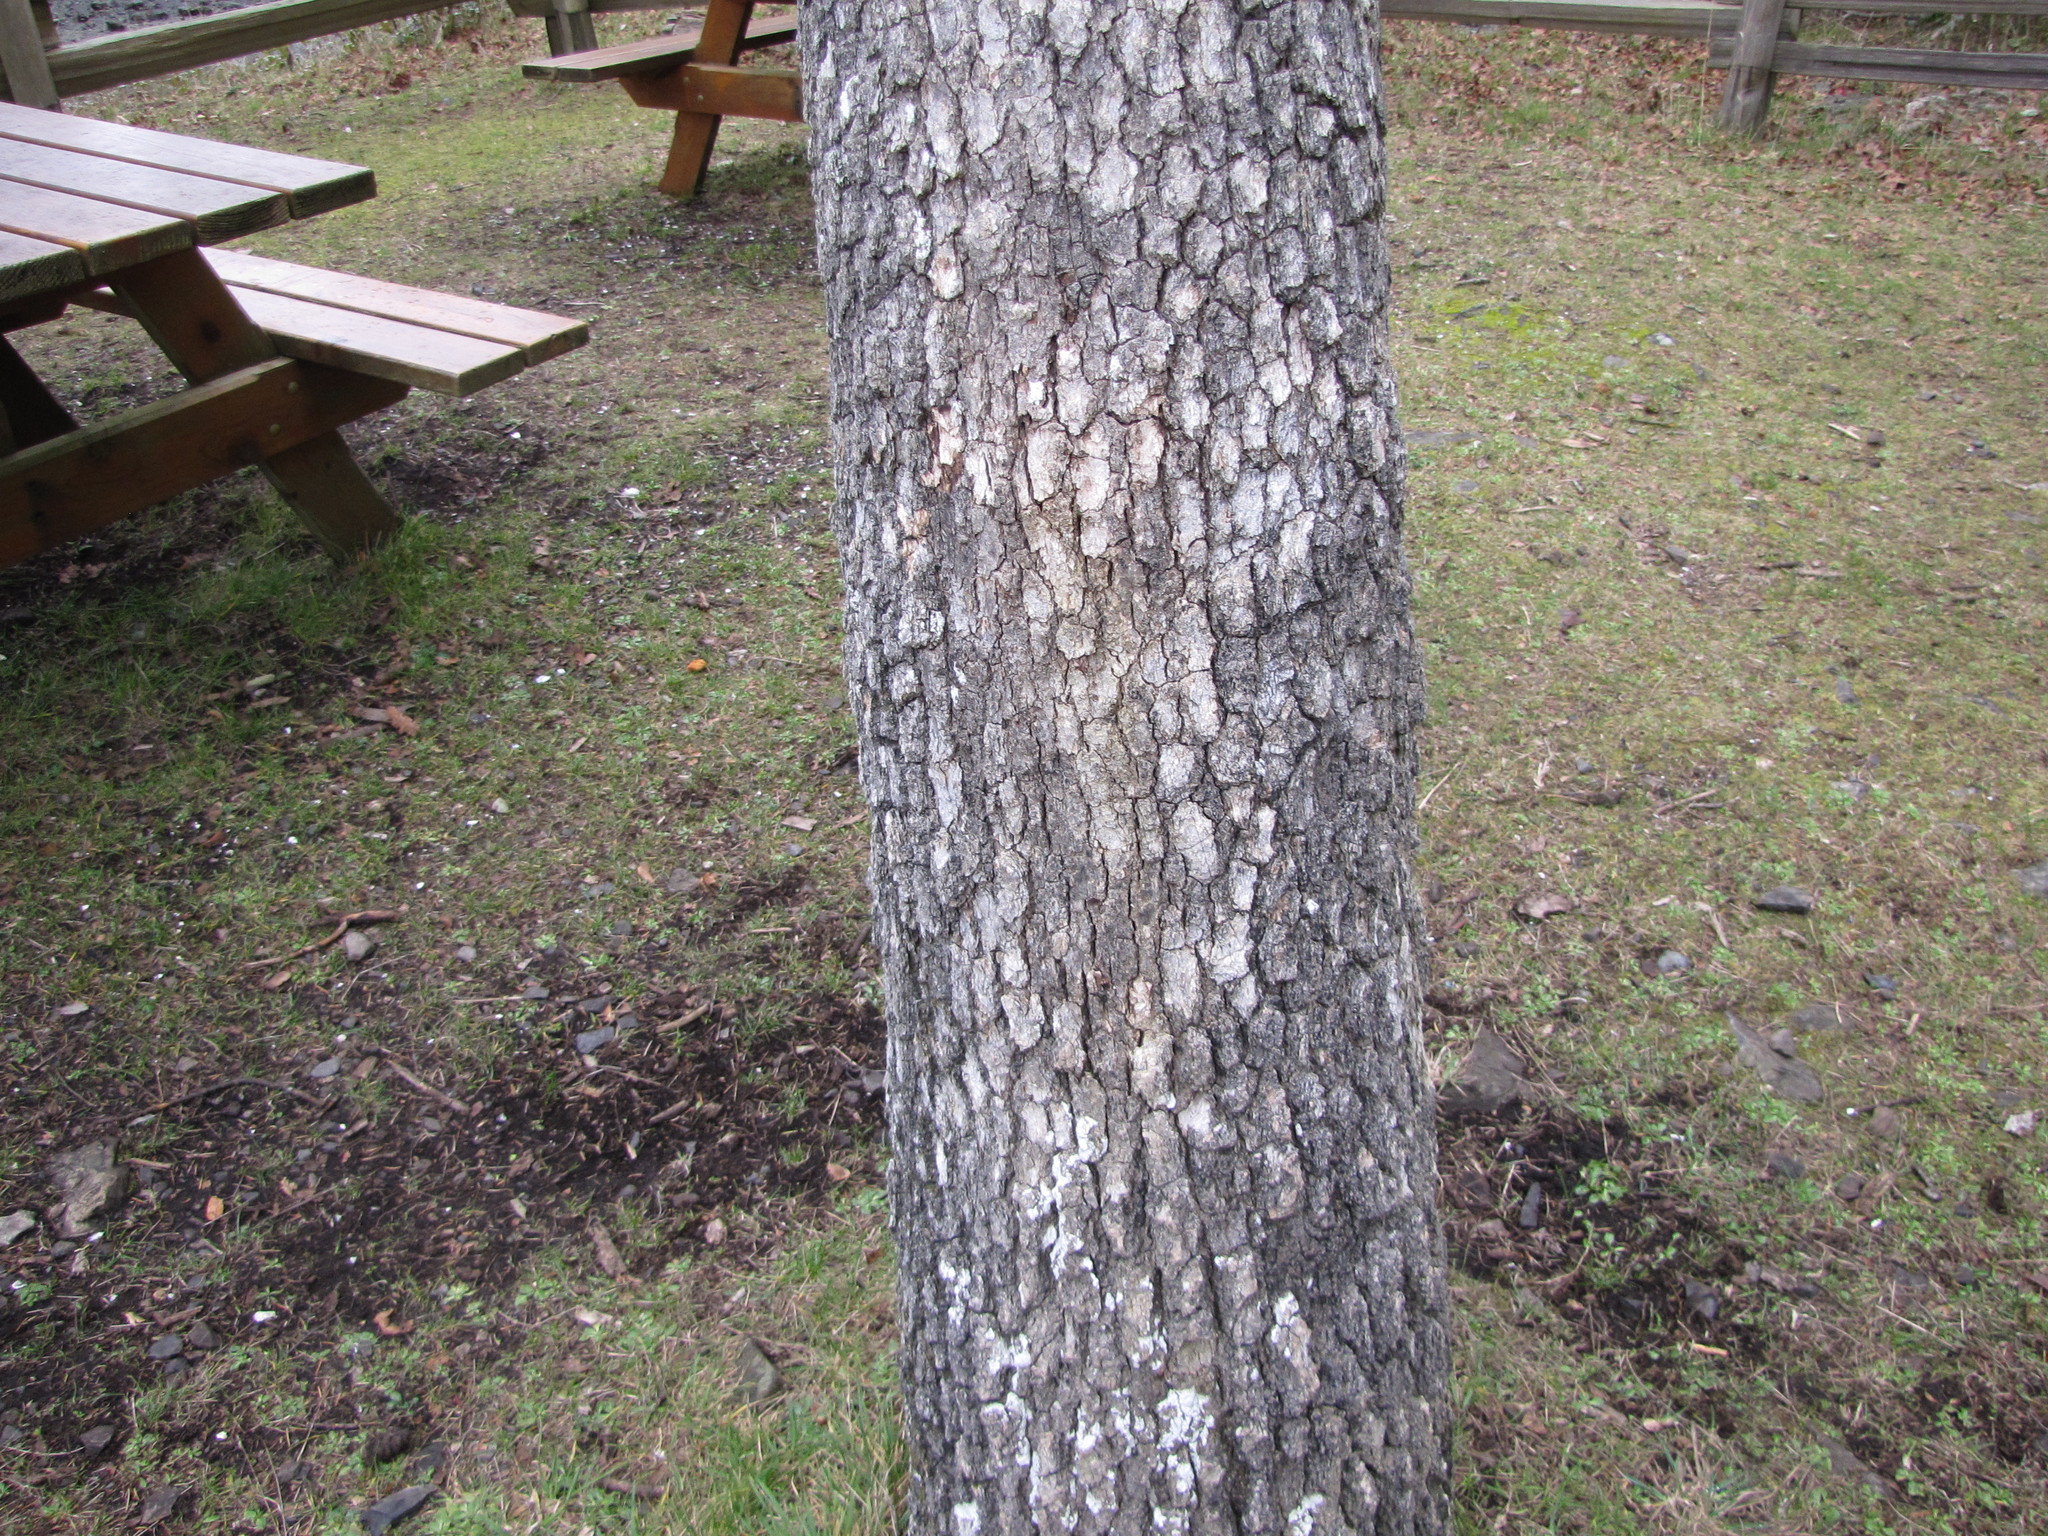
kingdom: Plantae
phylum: Tracheophyta
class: Magnoliopsida
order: Fagales
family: Fagaceae
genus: Quercus
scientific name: Quercus garryana
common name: Garry oak
